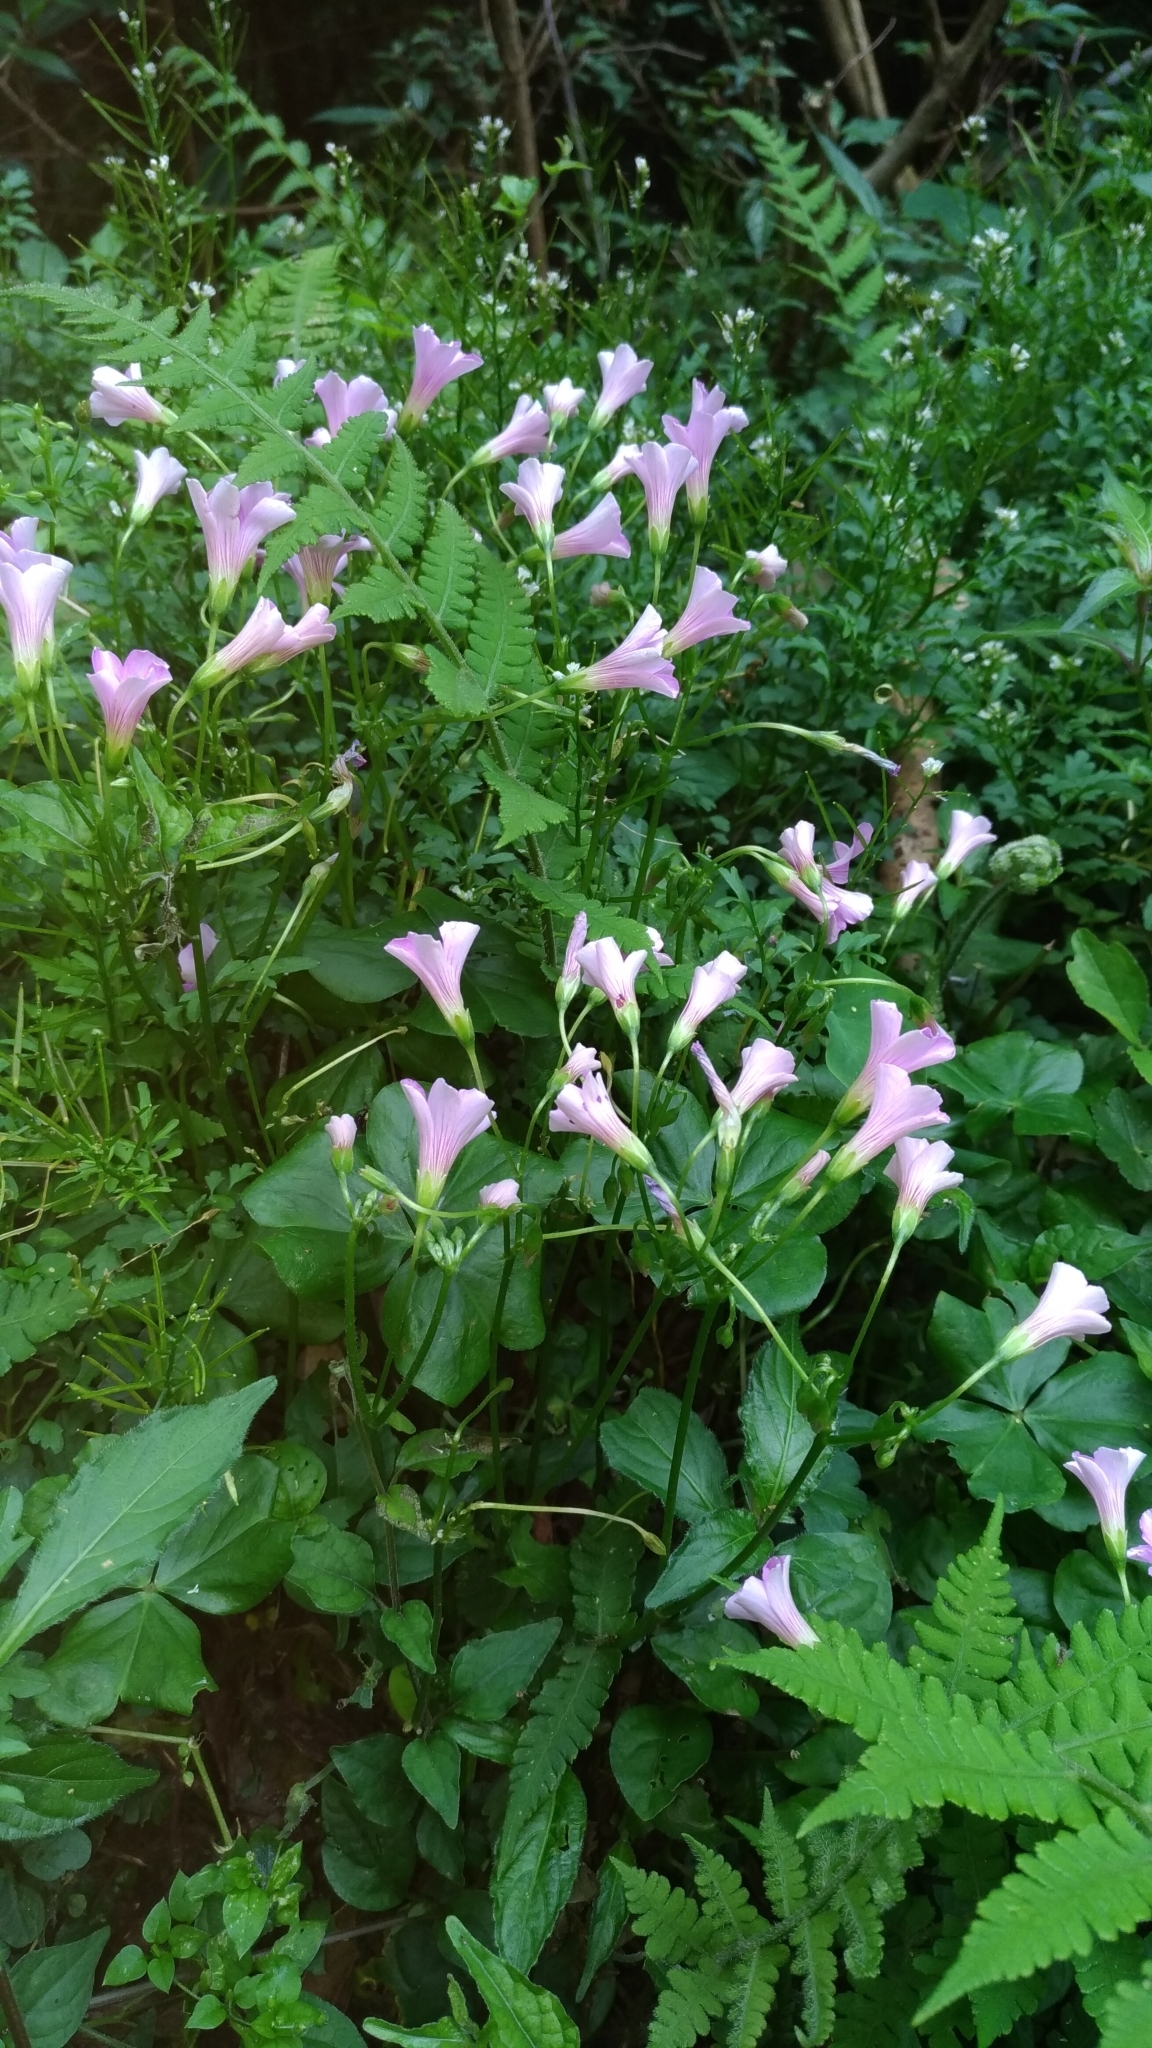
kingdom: Plantae
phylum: Tracheophyta
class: Magnoliopsida
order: Oxalidales
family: Oxalidaceae
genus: Oxalis
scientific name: Oxalis debilis
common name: Large-flowered pink-sorrel
